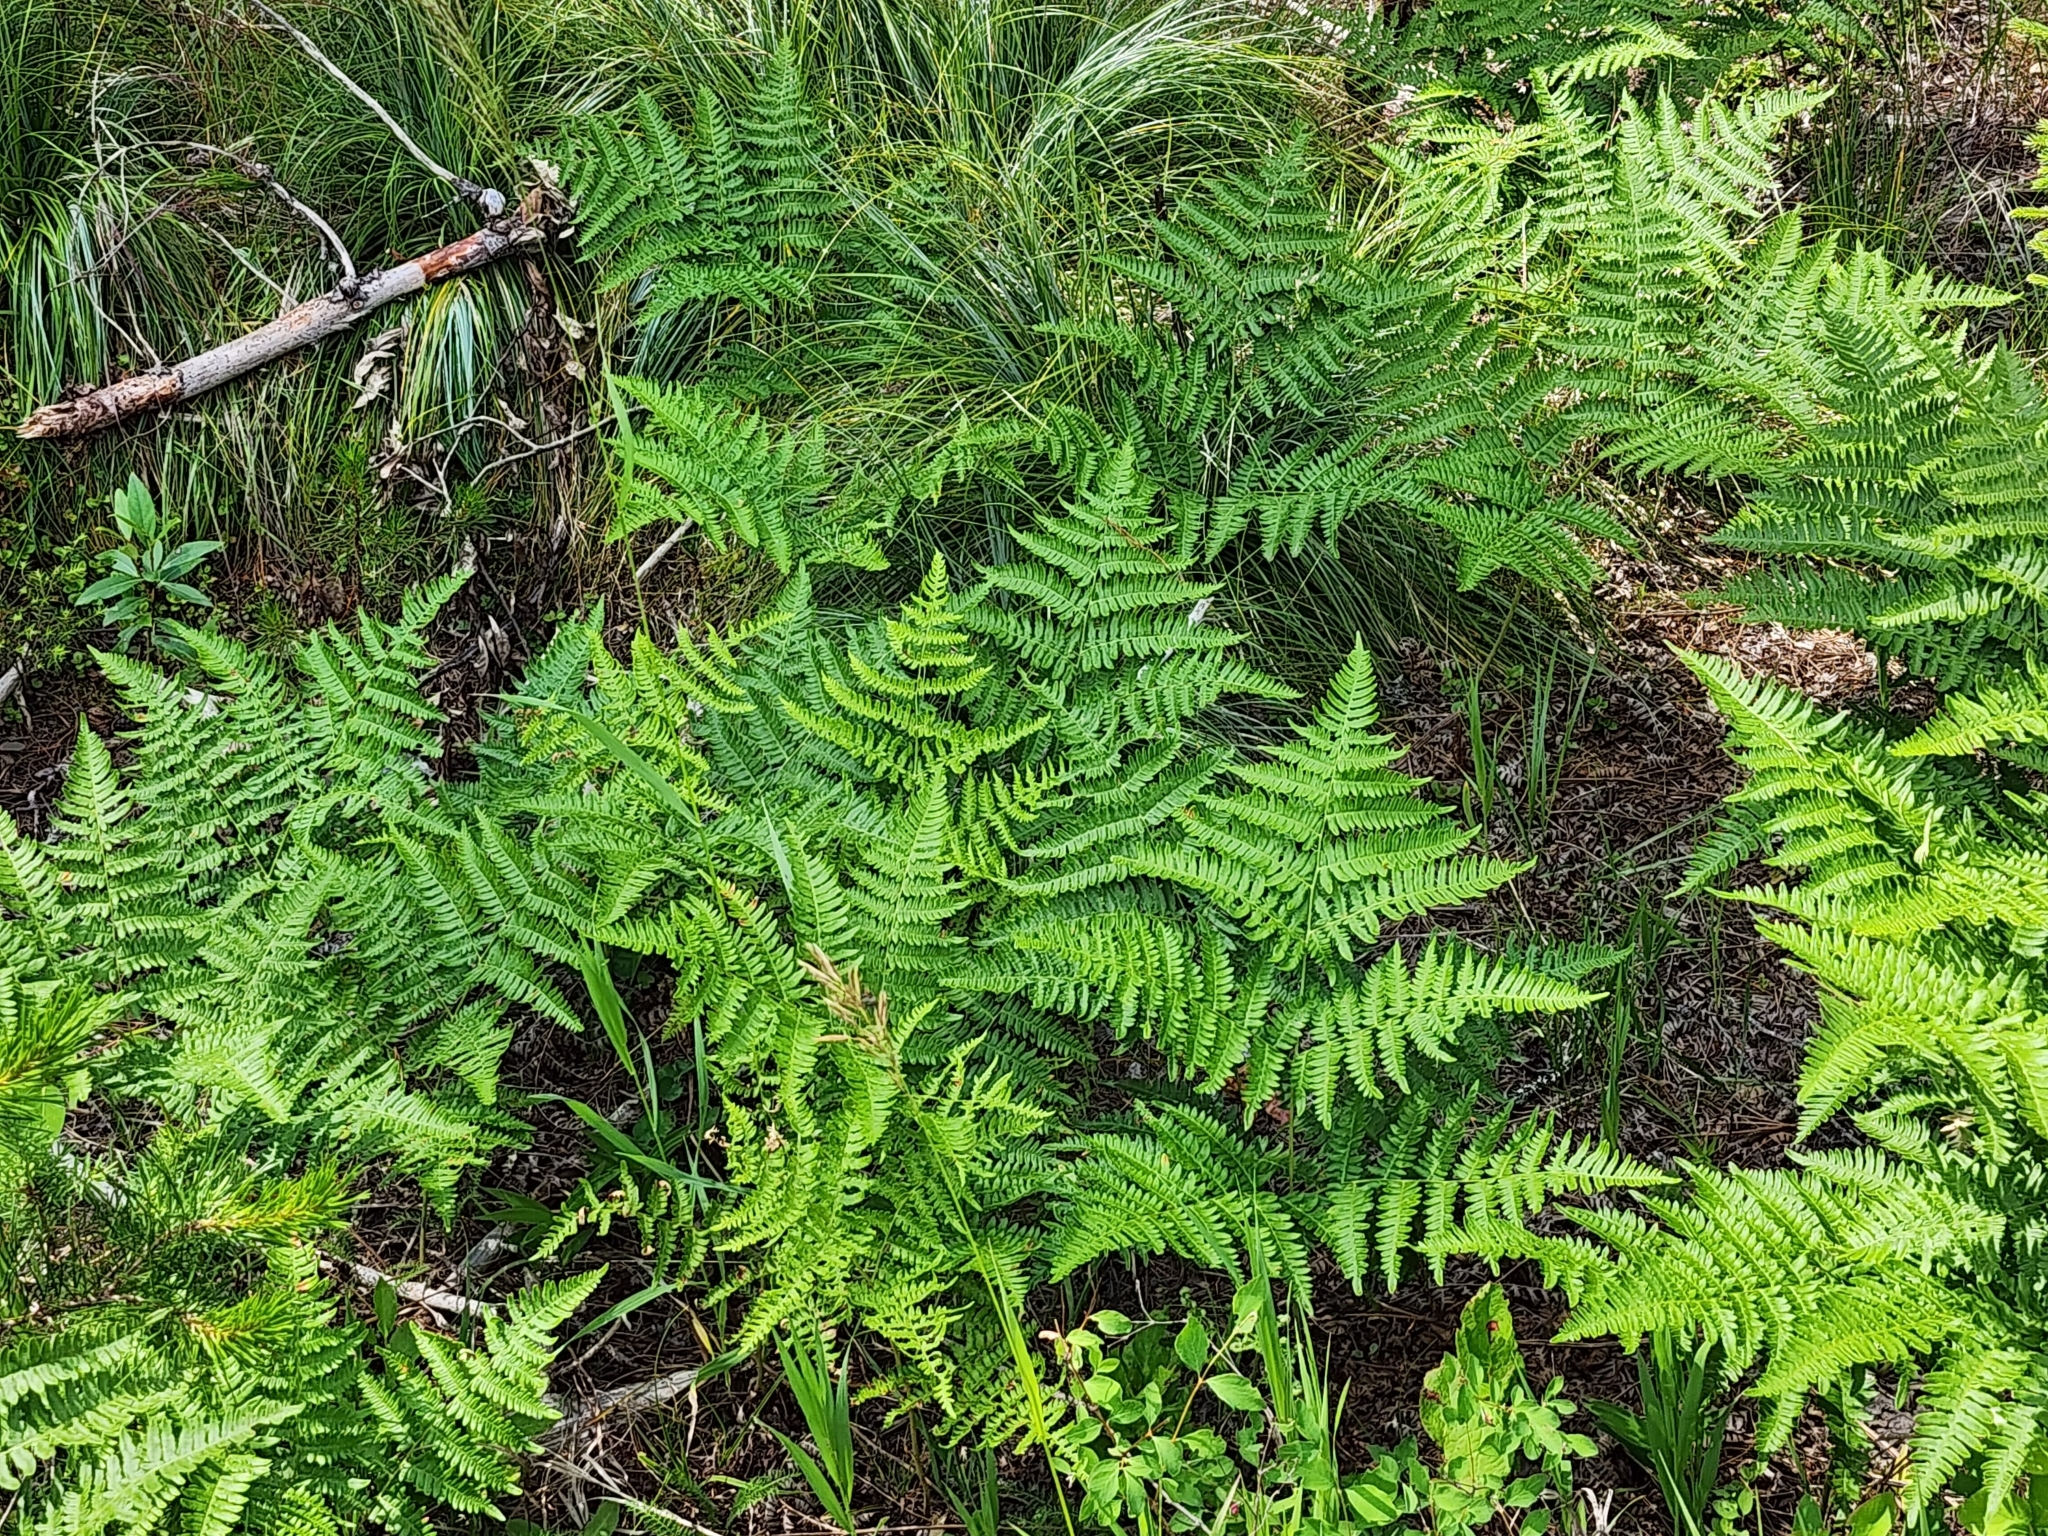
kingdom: Plantae
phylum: Tracheophyta
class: Polypodiopsida
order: Polypodiales
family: Dennstaedtiaceae
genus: Pteridium
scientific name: Pteridium aquilinum
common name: Bracken
